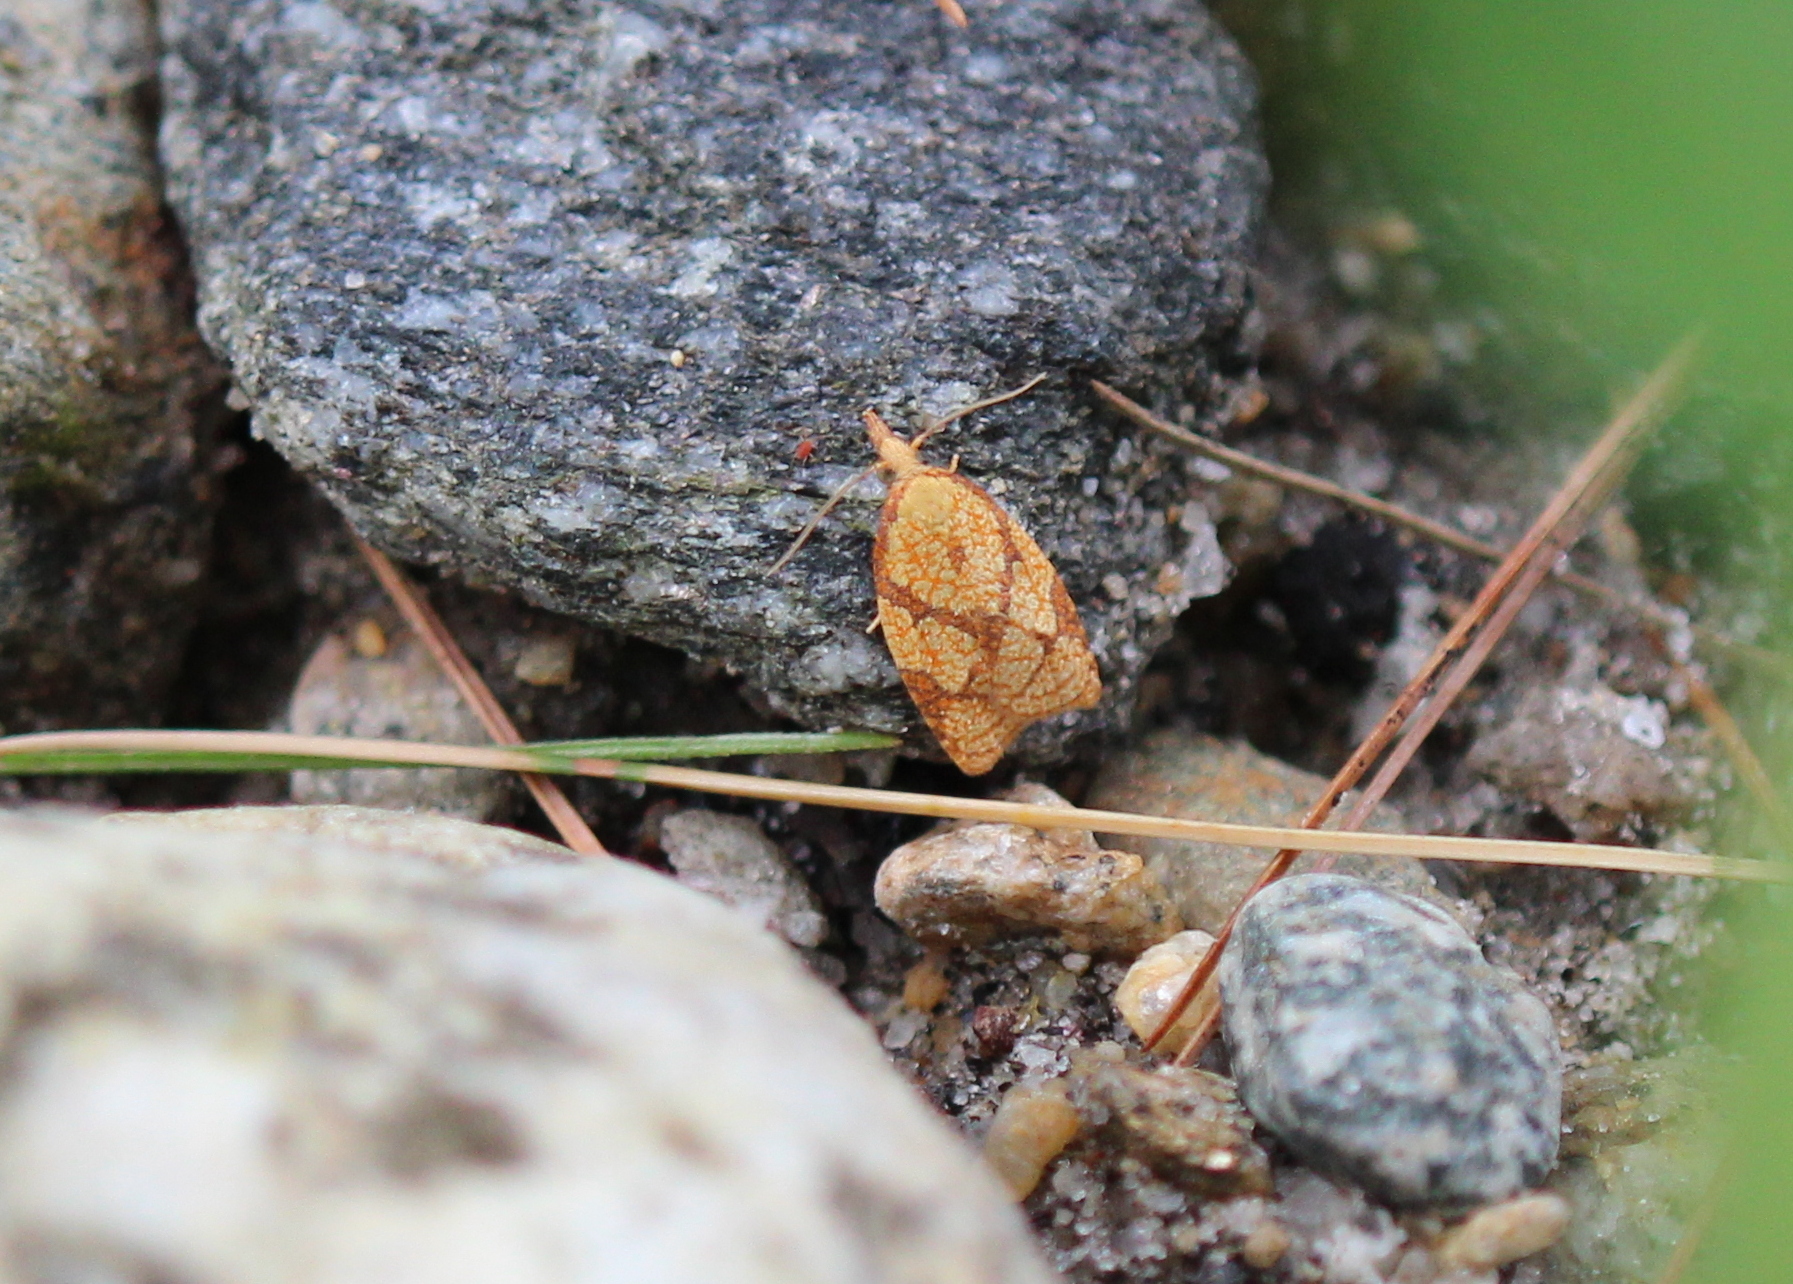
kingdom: Animalia
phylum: Arthropoda
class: Insecta
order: Lepidoptera
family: Tortricidae
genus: Cenopis
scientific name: Cenopis reticulatana
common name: Reticulated fruitworm moth
